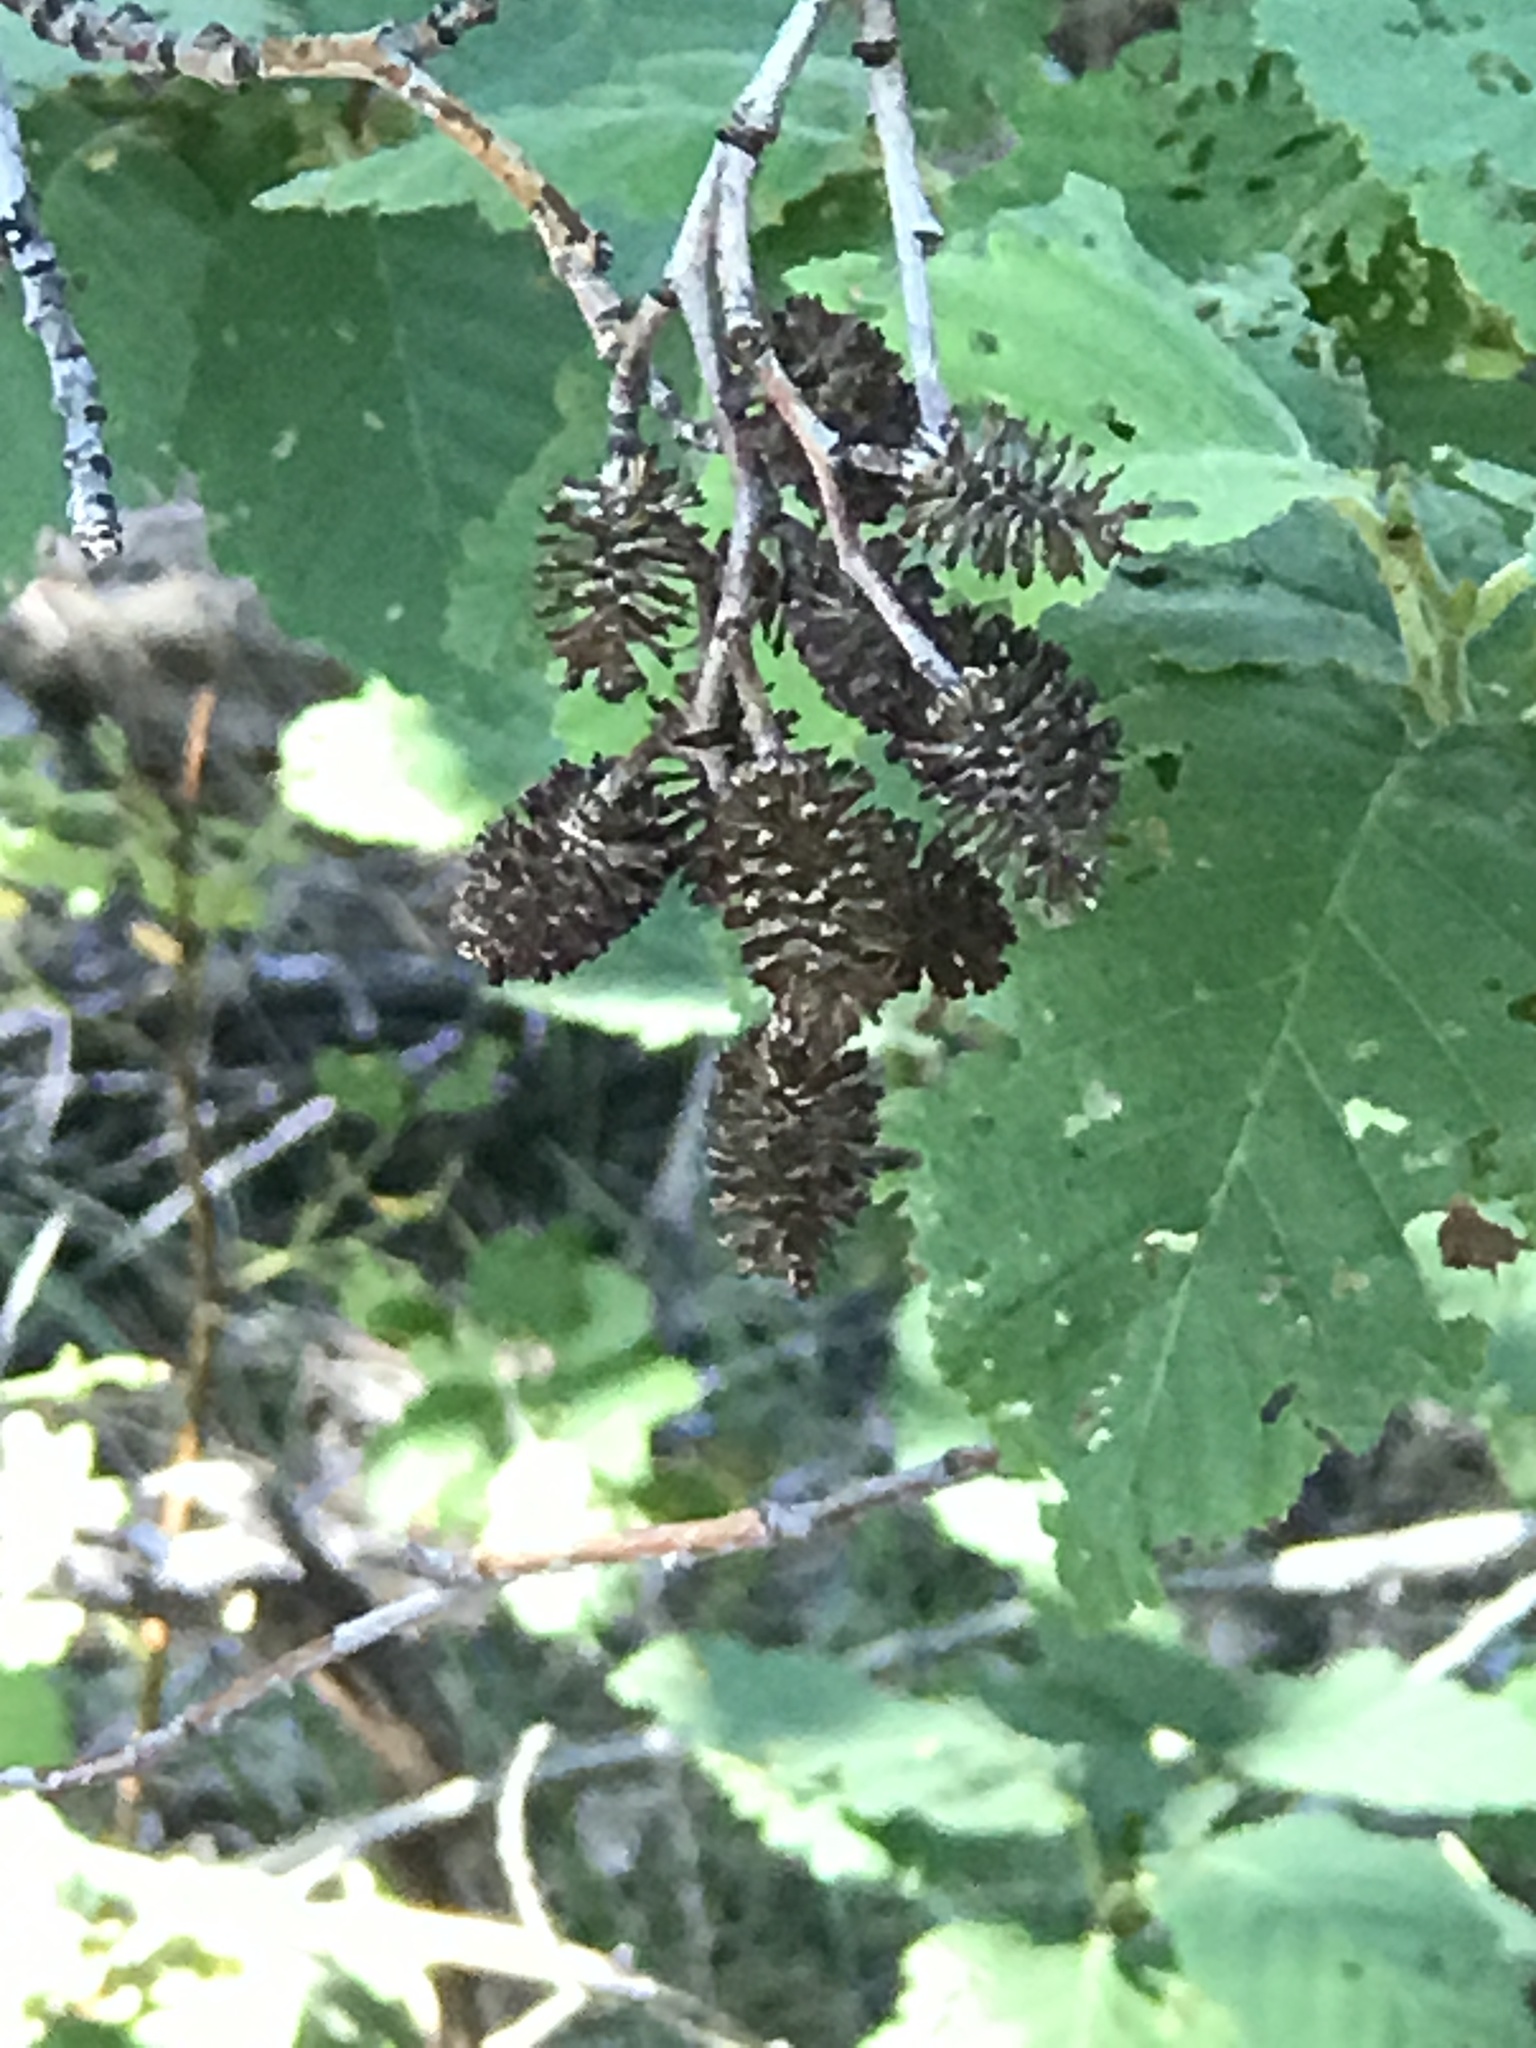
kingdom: Plantae
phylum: Tracheophyta
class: Magnoliopsida
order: Fagales
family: Betulaceae
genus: Alnus
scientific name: Alnus incana
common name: Grey alder
